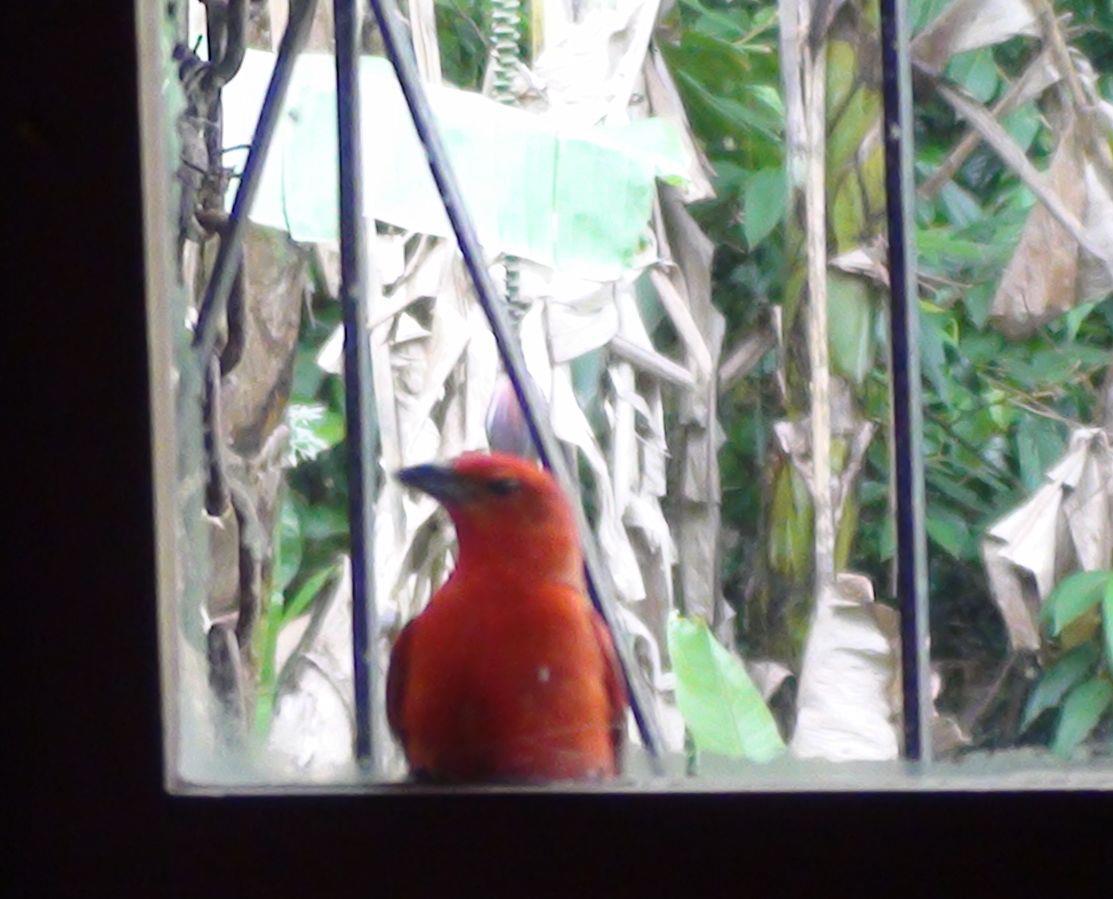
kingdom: Animalia
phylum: Chordata
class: Aves
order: Passeriformes
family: Cardinalidae
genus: Piranga
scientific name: Piranga flava
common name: Red tanager
